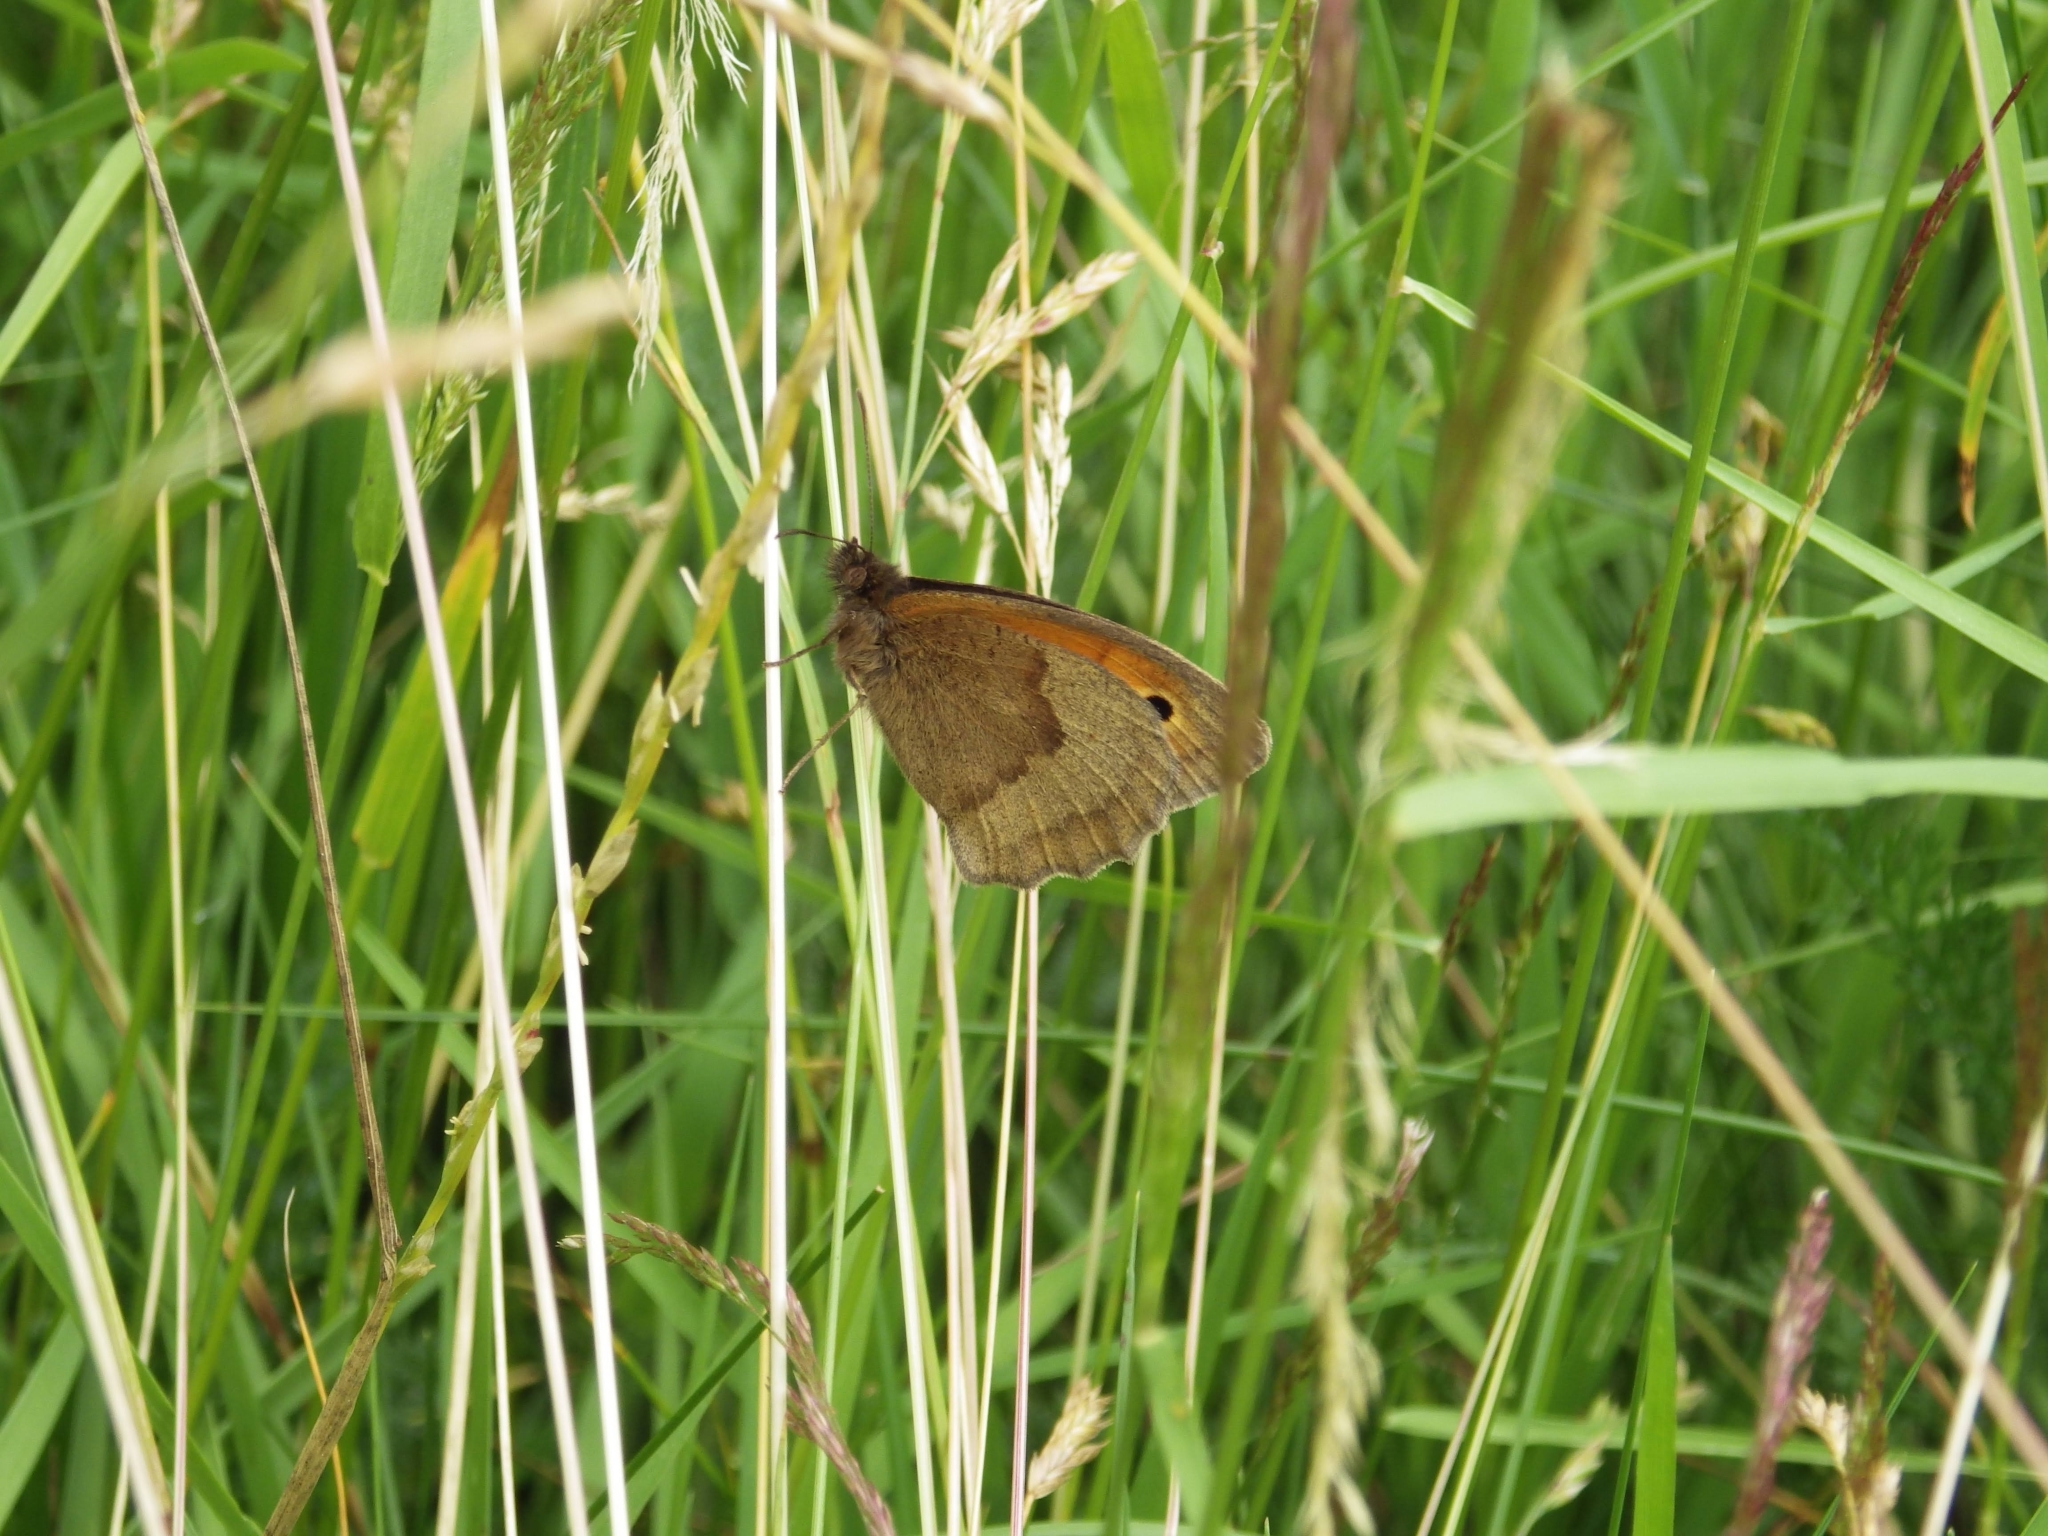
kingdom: Animalia
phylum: Arthropoda
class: Insecta
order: Lepidoptera
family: Nymphalidae
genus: Maniola
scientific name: Maniola jurtina
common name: Meadow brown
